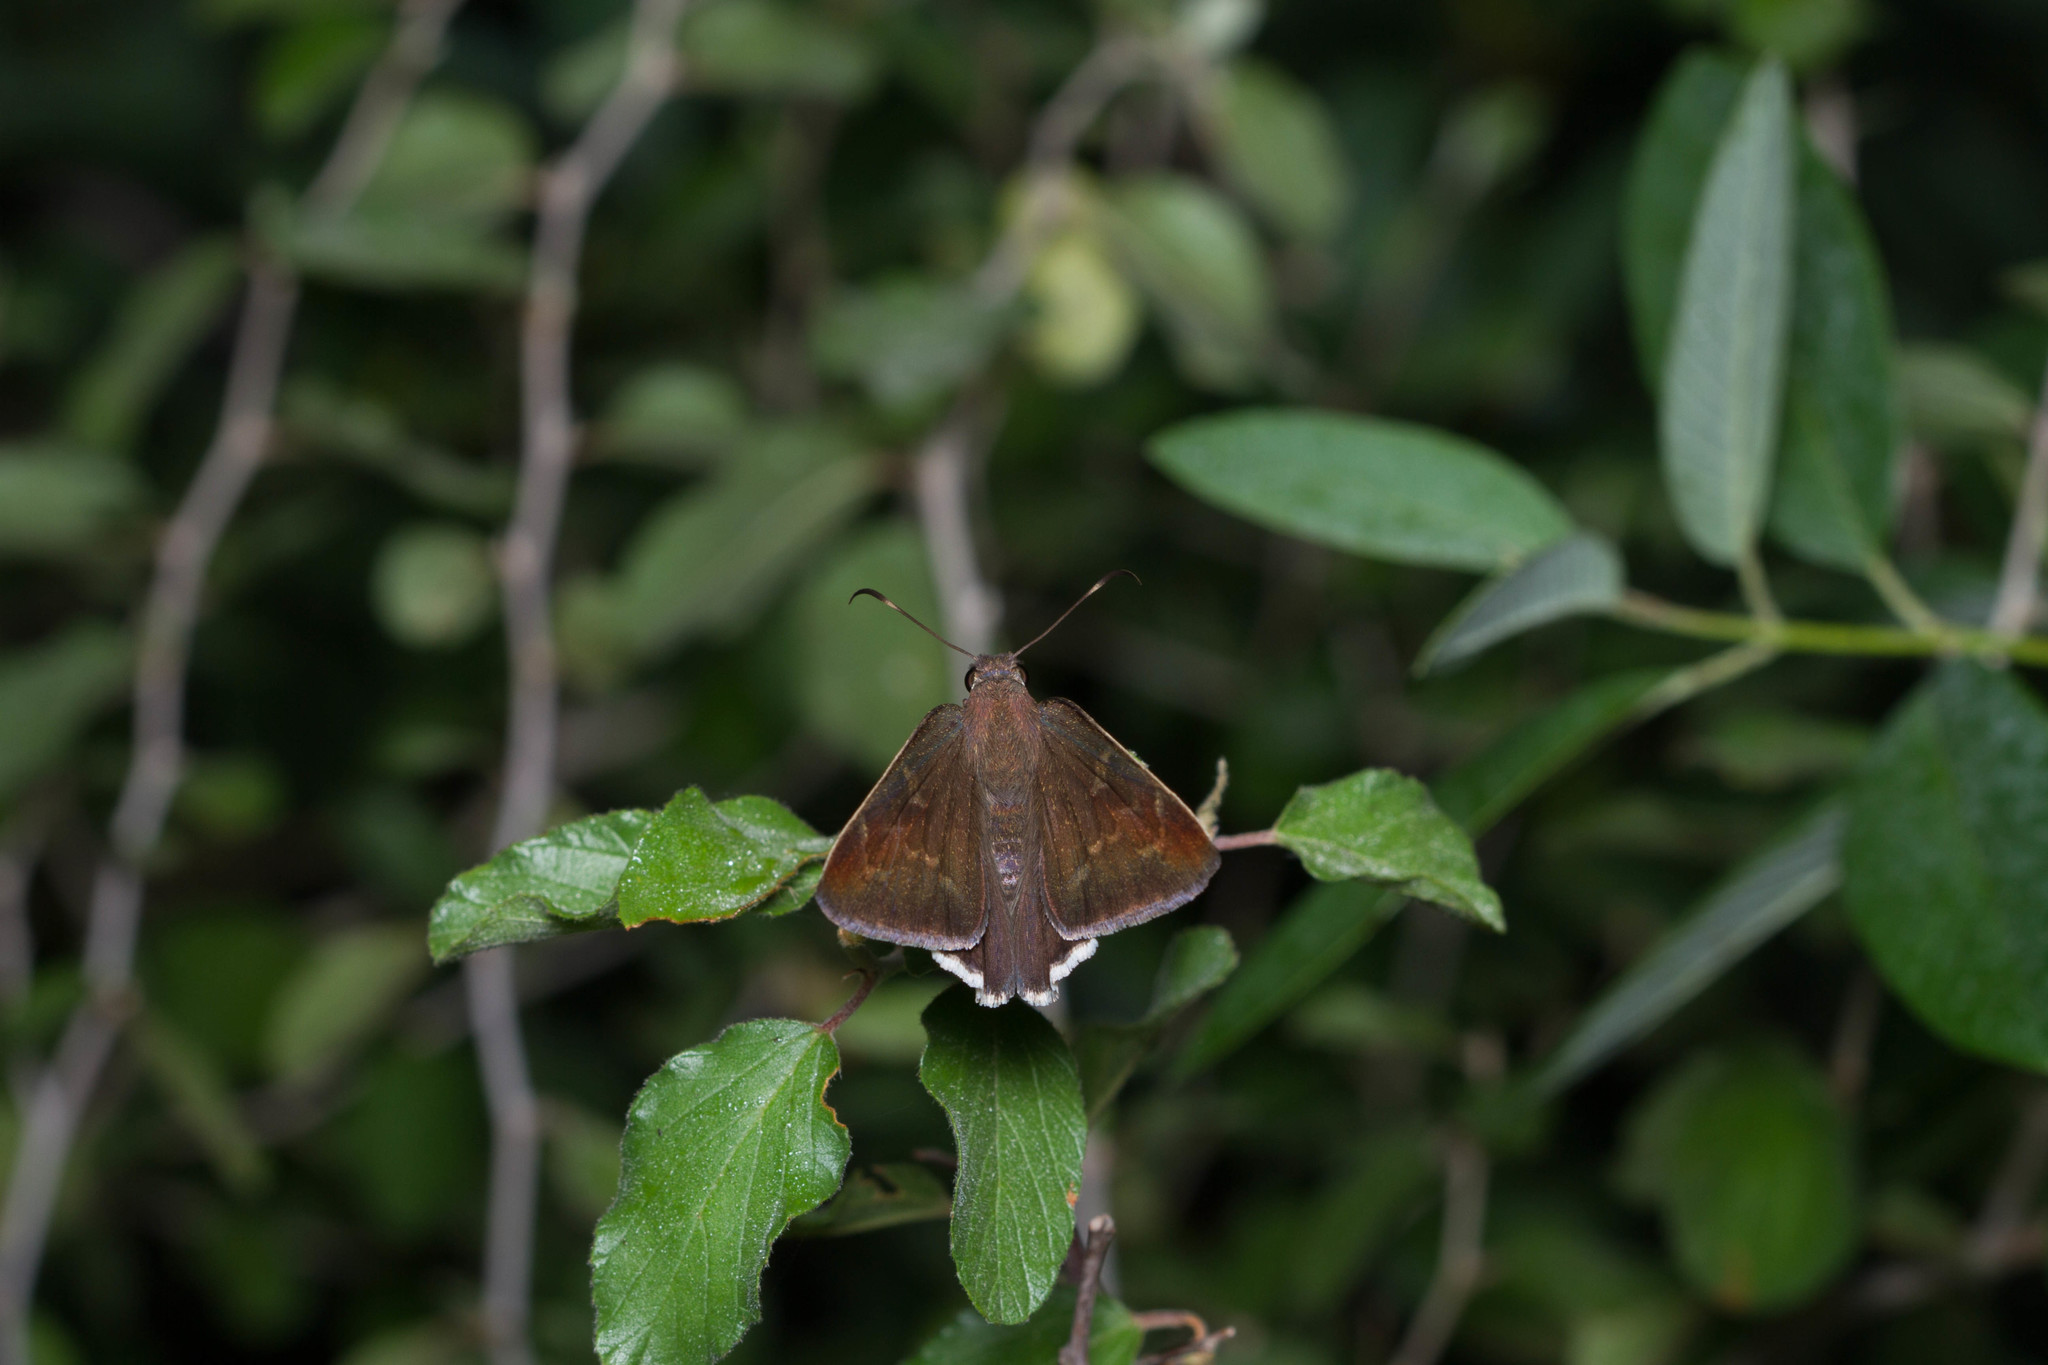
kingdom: Animalia
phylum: Arthropoda
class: Insecta
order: Lepidoptera
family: Hesperiidae
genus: Achalarus
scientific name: Achalarus Murgaria albociliatus
